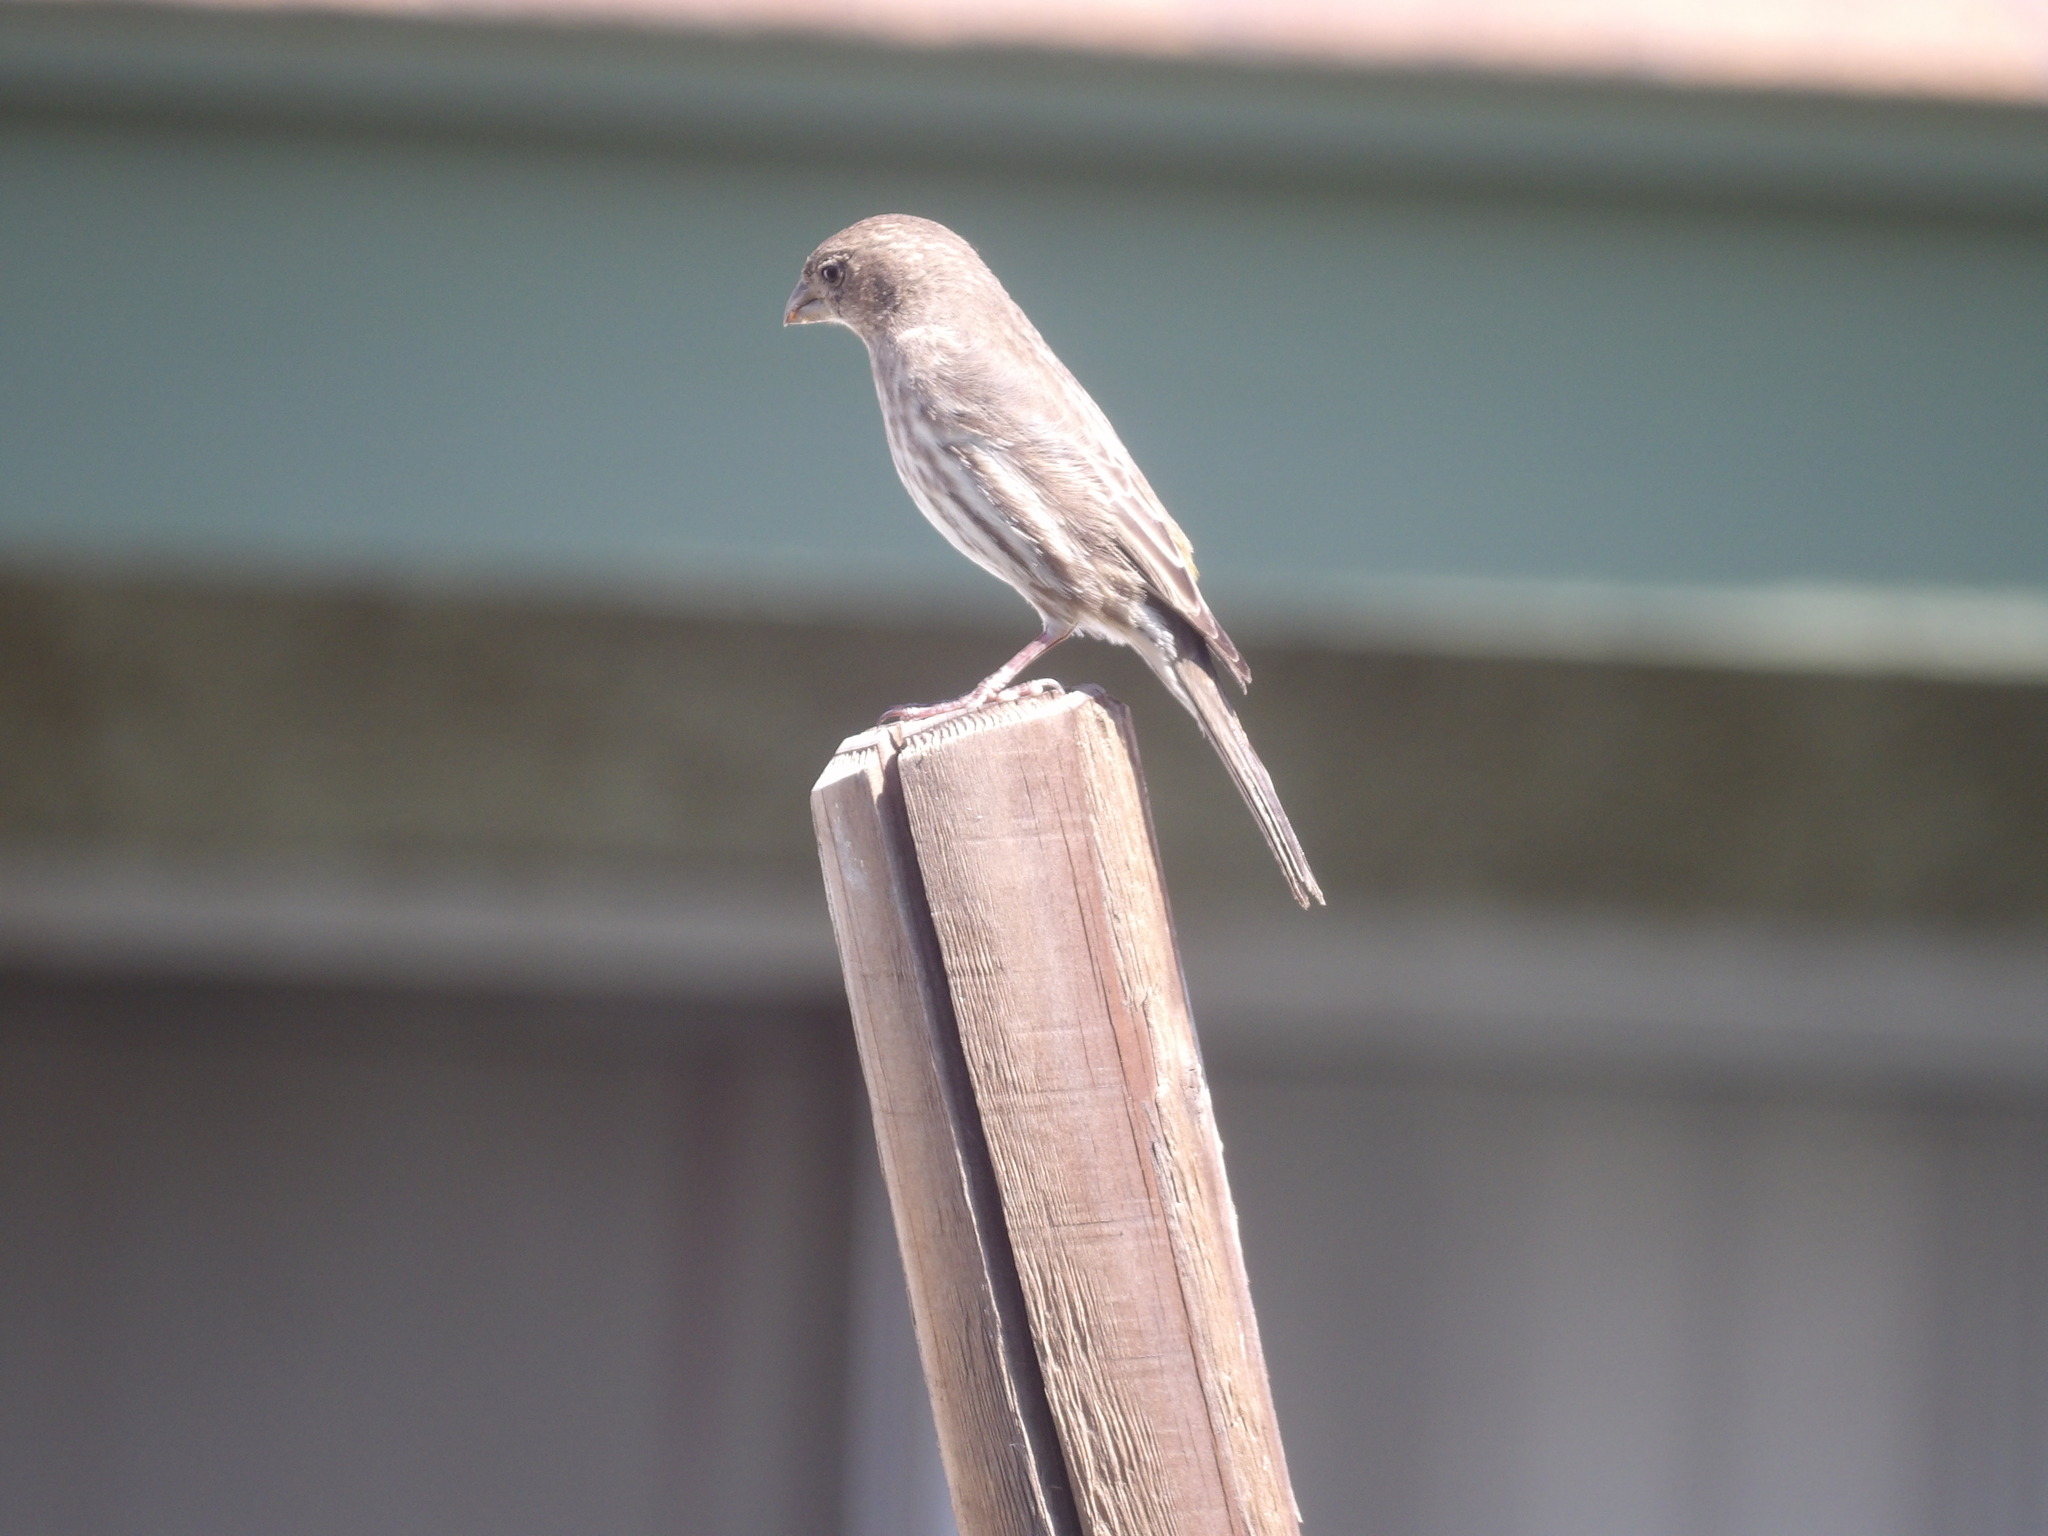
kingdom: Animalia
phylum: Chordata
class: Aves
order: Passeriformes
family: Fringillidae
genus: Haemorhous
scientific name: Haemorhous mexicanus
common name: House finch
